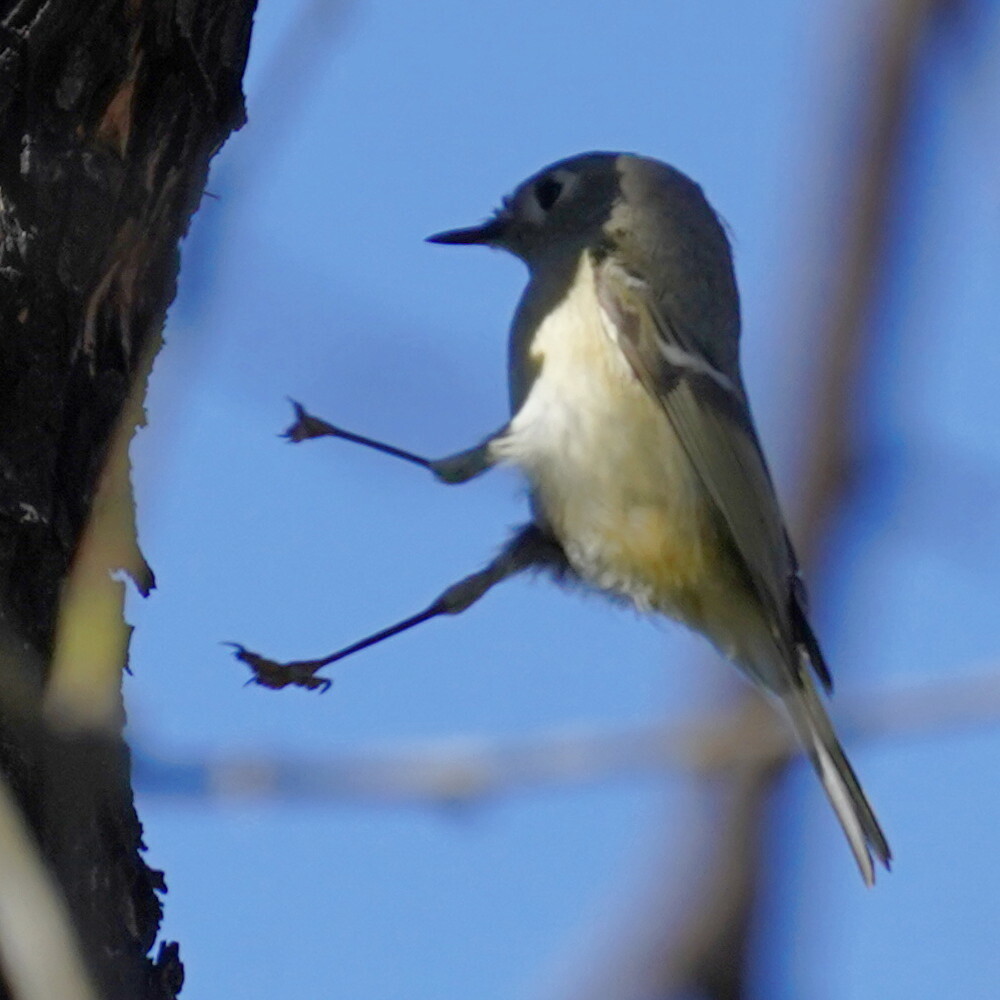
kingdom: Animalia
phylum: Chordata
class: Aves
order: Passeriformes
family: Regulidae
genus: Regulus
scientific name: Regulus calendula
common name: Ruby-crowned kinglet
